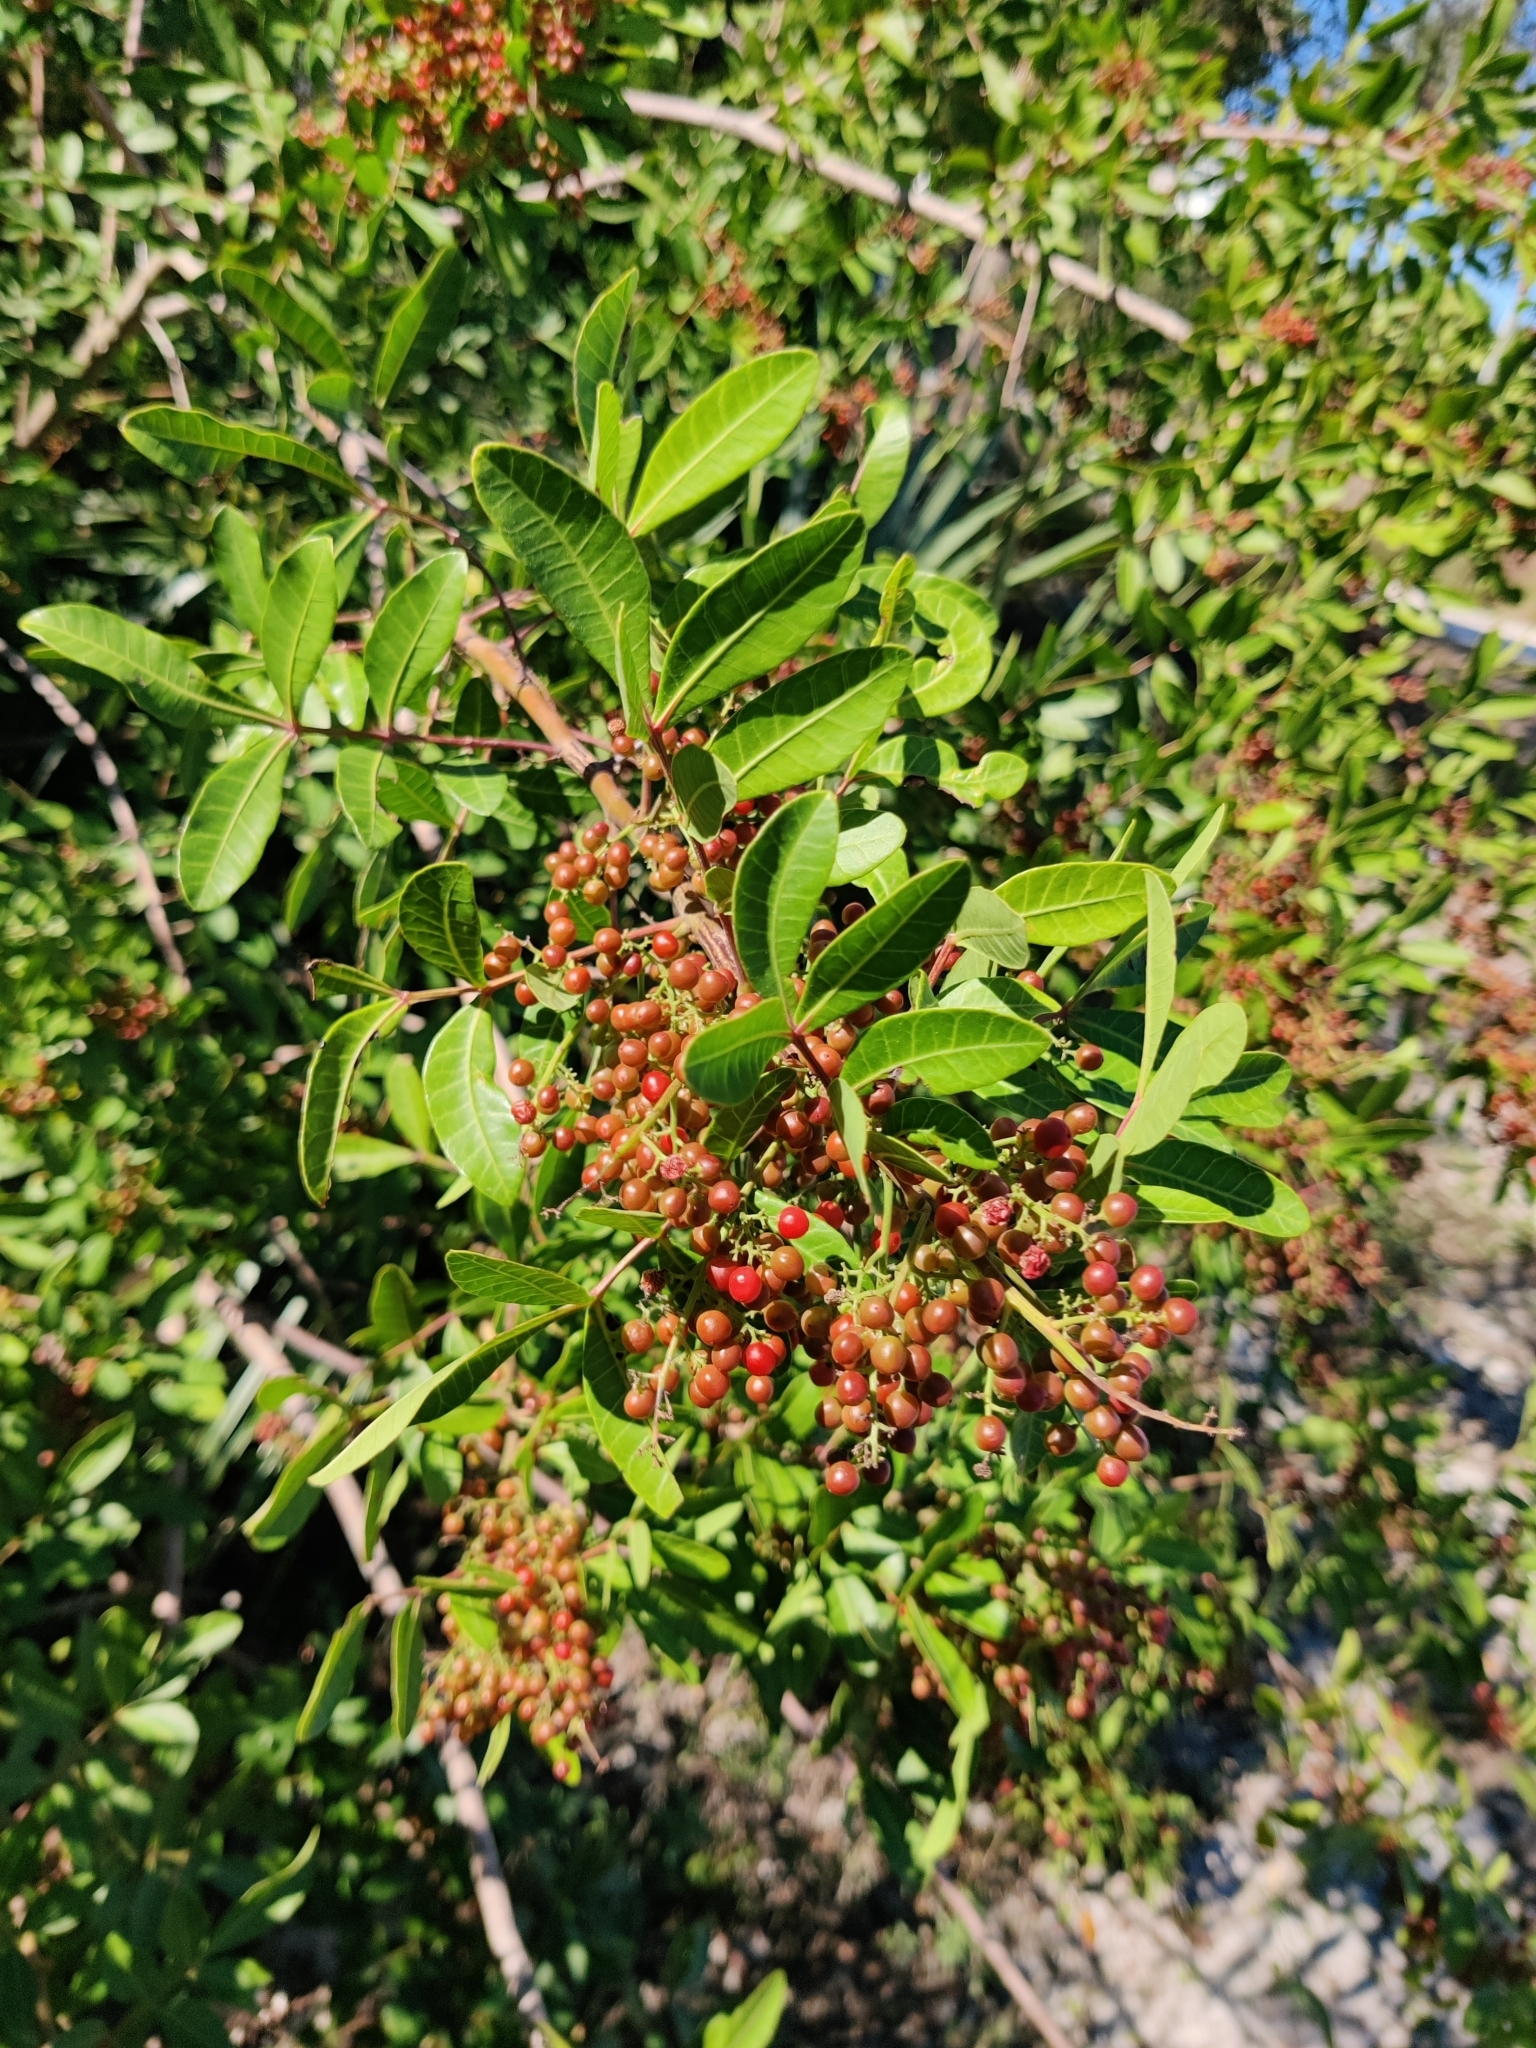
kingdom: Plantae
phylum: Tracheophyta
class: Magnoliopsida
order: Sapindales
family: Anacardiaceae
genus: Schinus
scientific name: Schinus terebinthifolia
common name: Brazilian peppertree
